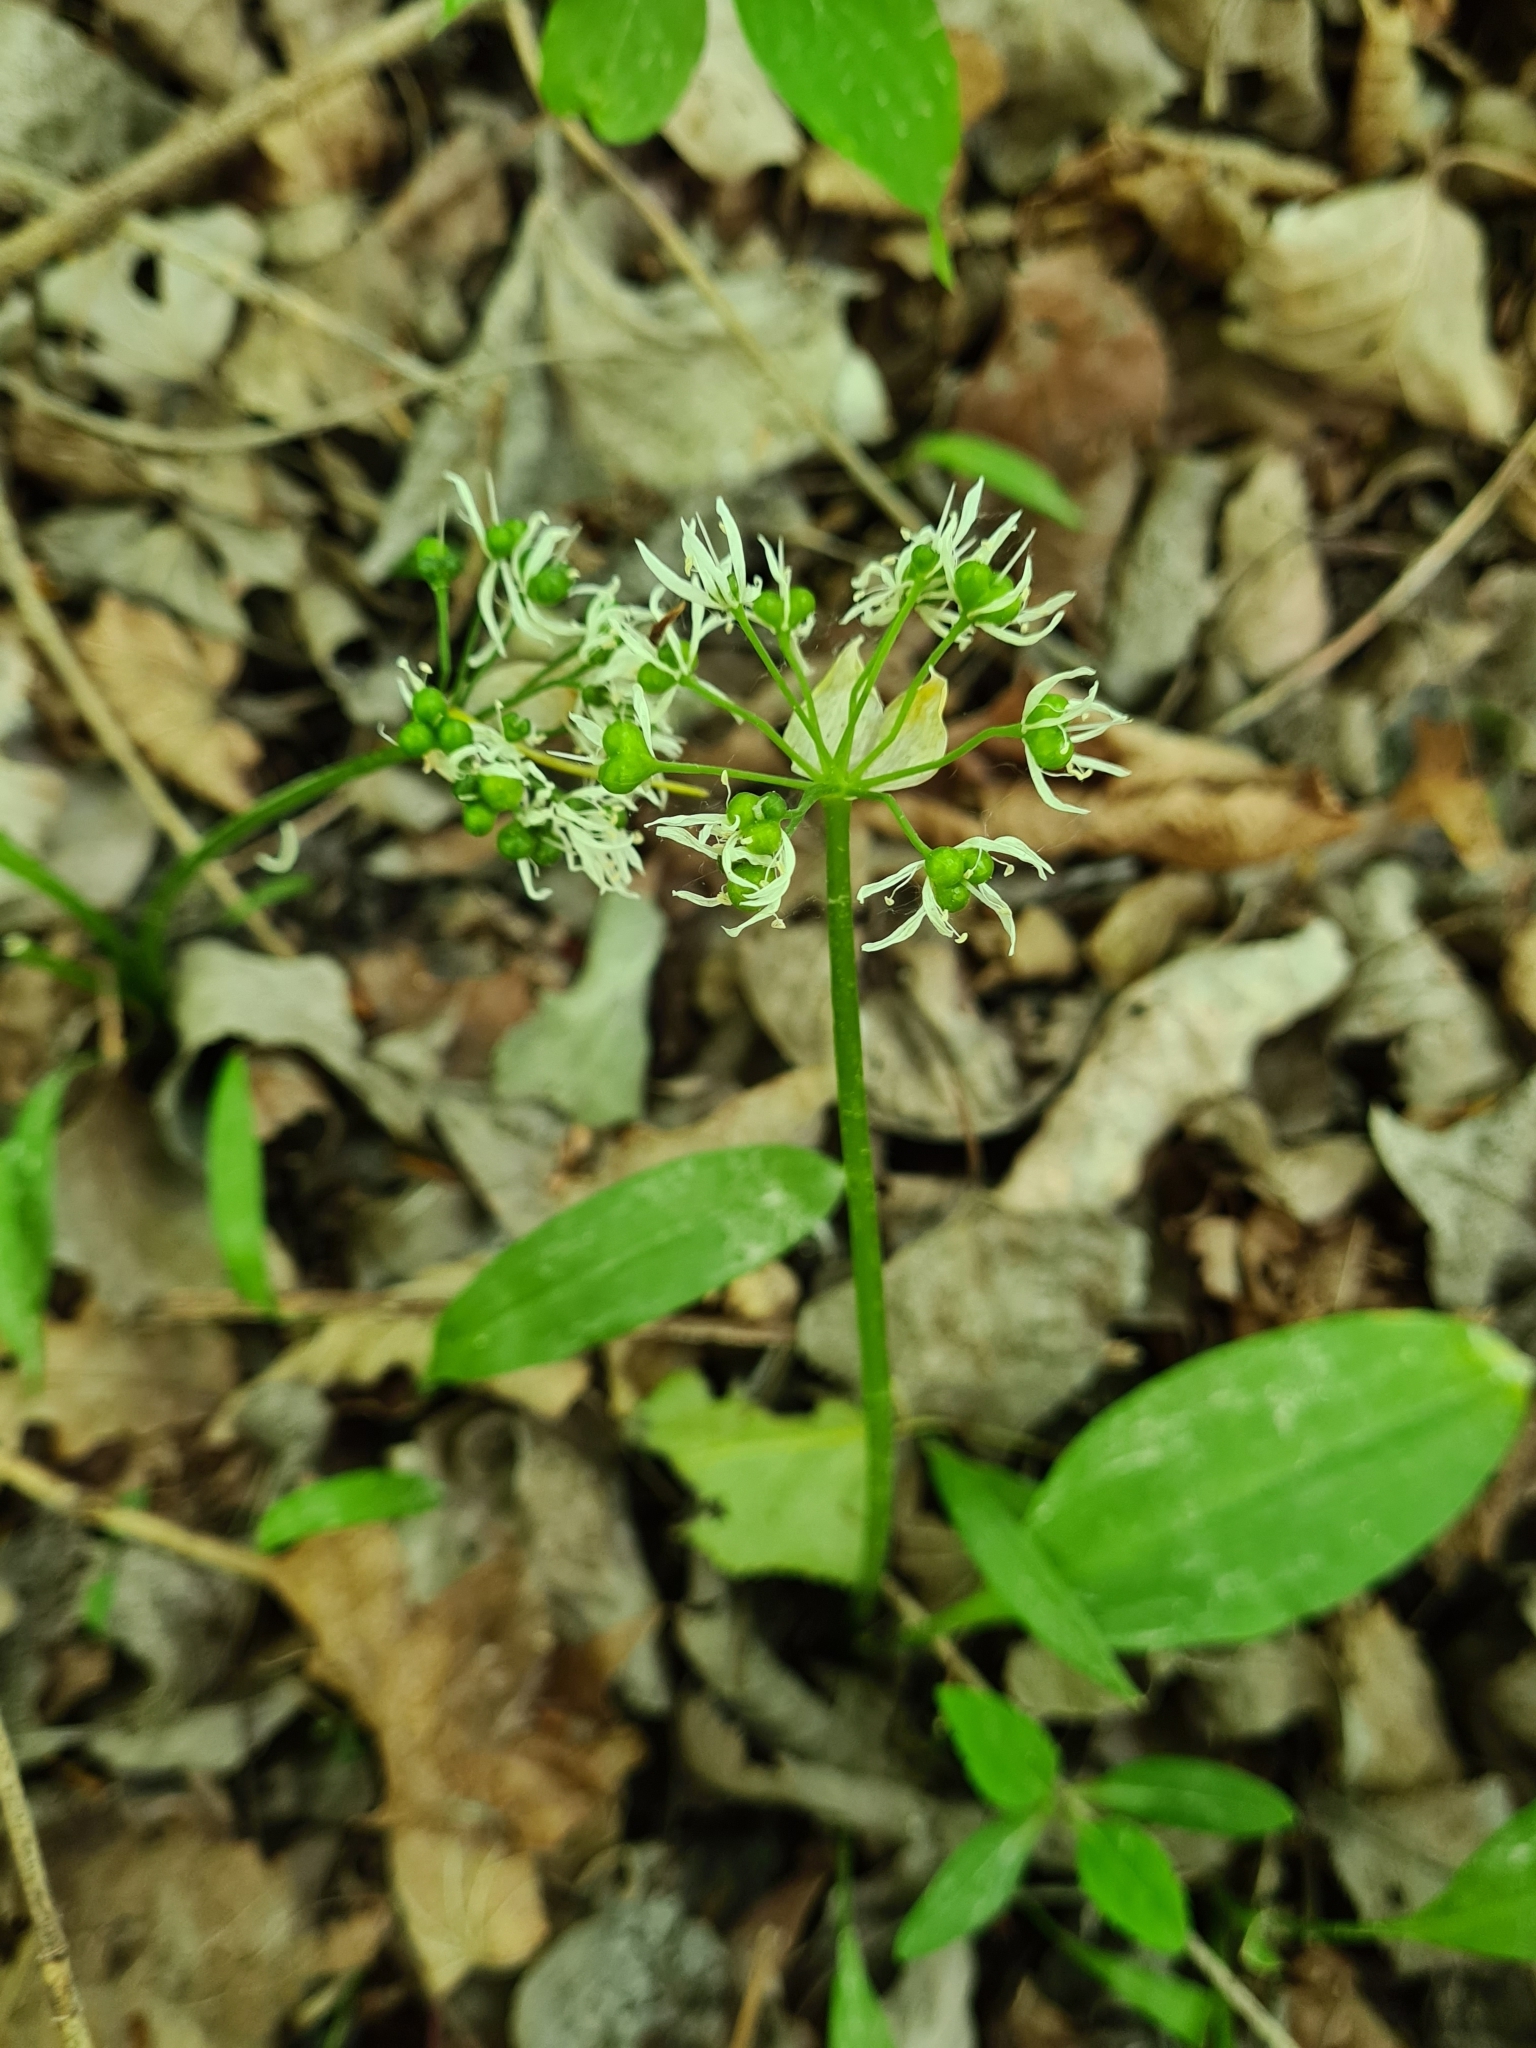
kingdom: Plantae
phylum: Tracheophyta
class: Liliopsida
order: Asparagales
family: Amaryllidaceae
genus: Allium
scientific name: Allium ursinum
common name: Ramsons
